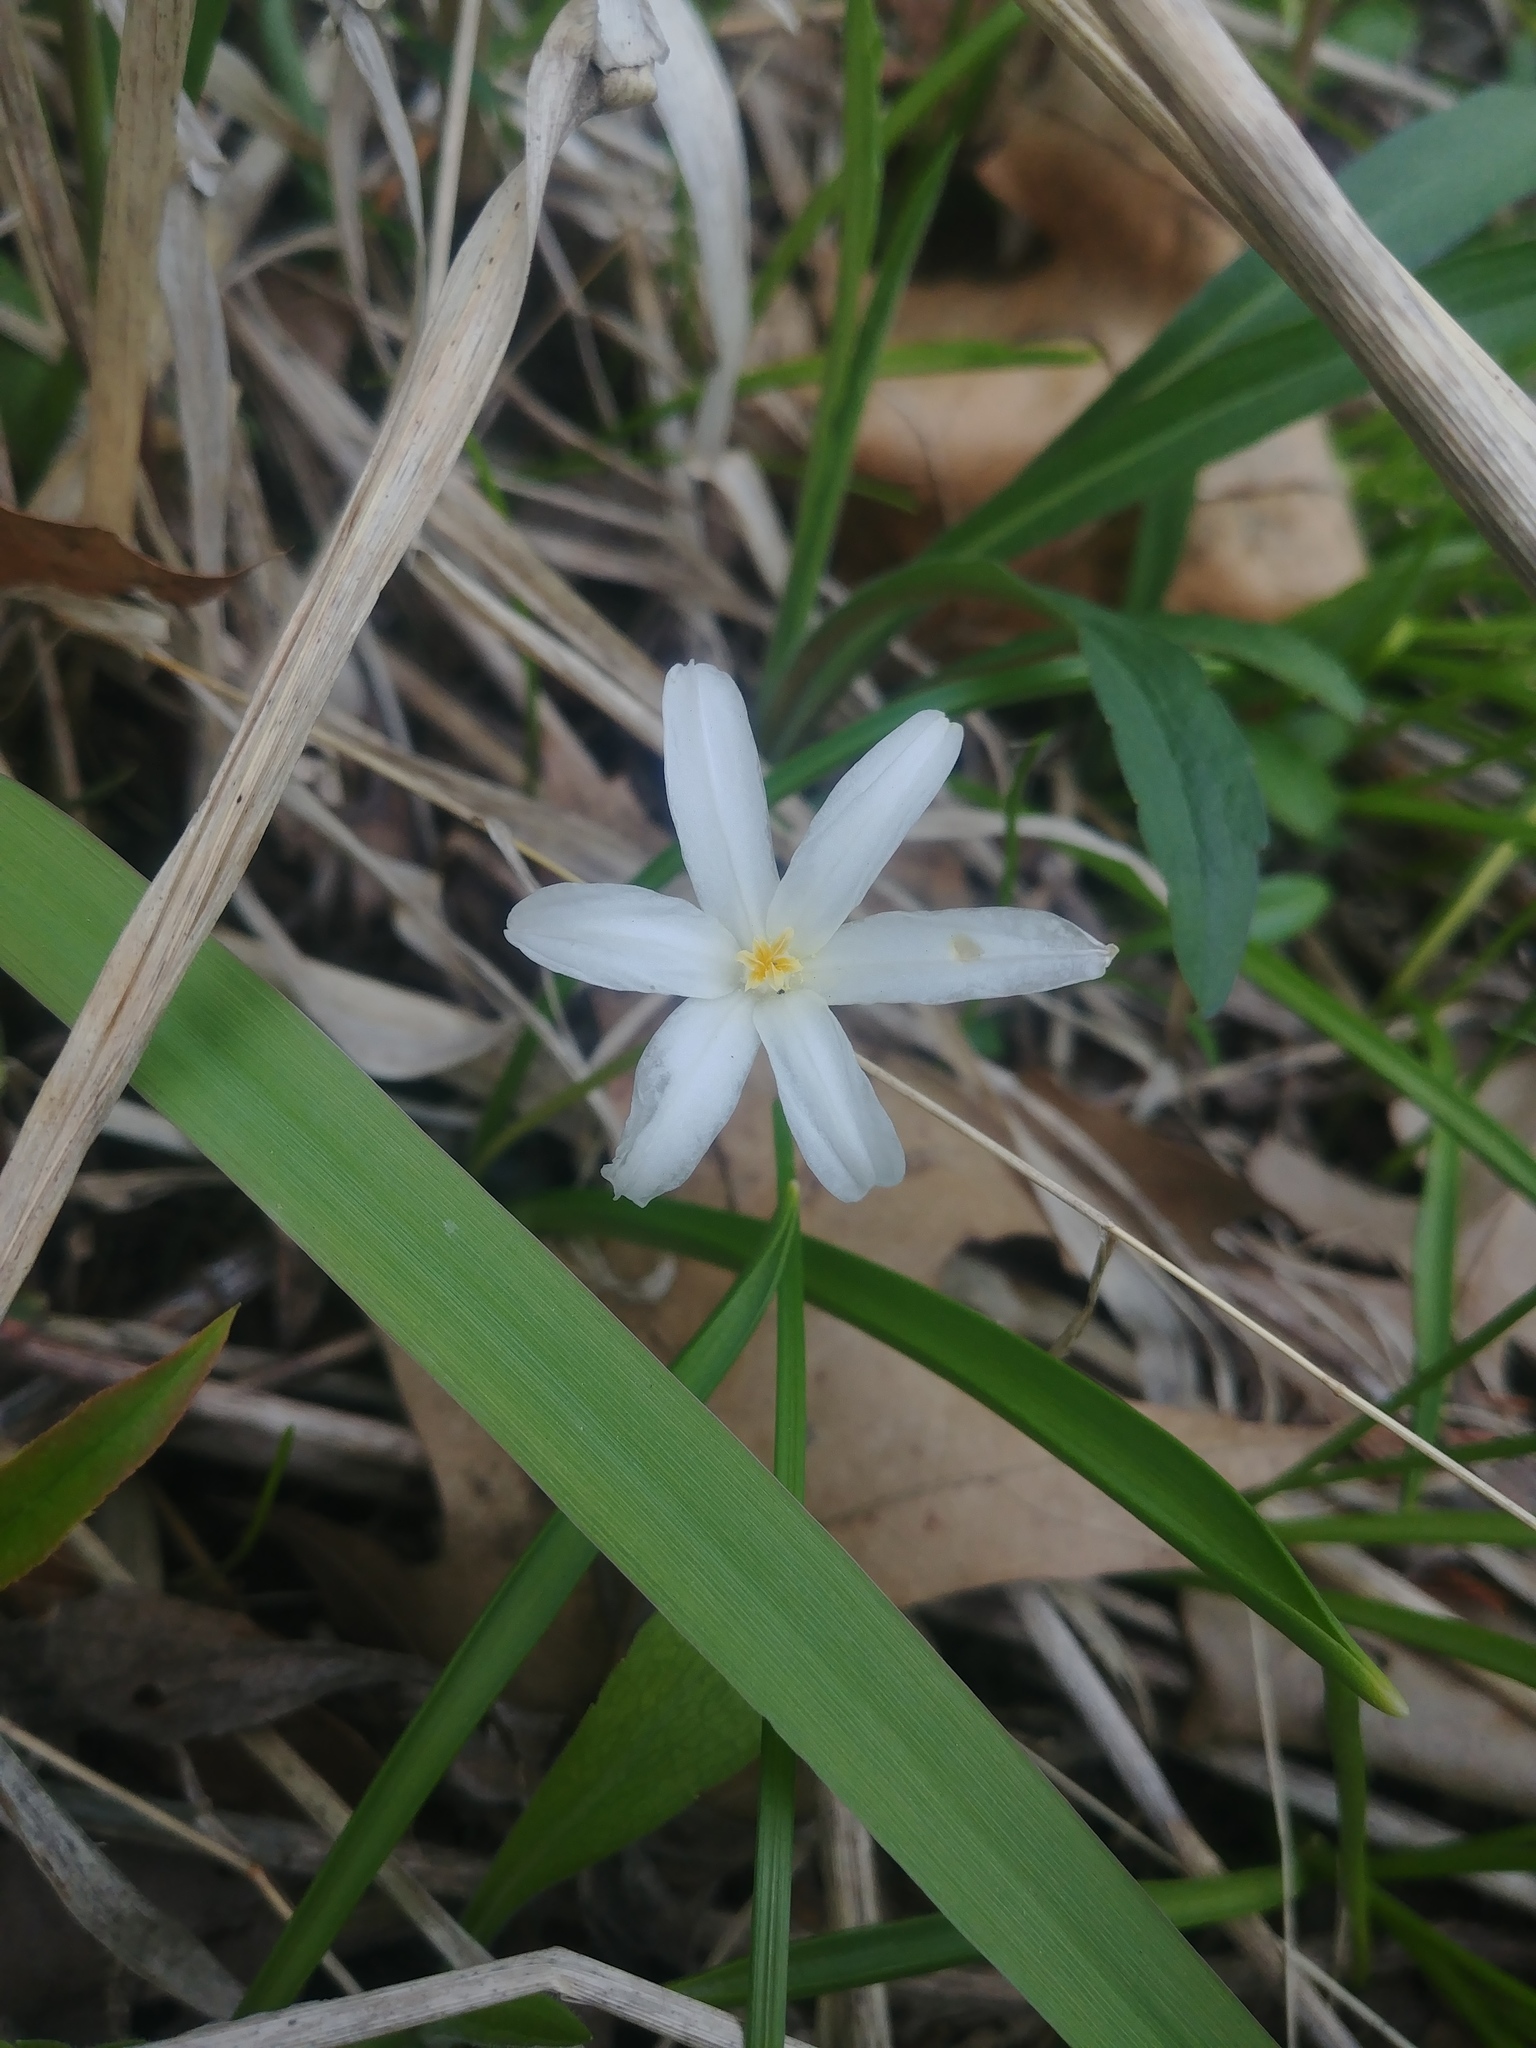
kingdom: Plantae
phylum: Tracheophyta
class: Liliopsida
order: Asparagales
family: Asparagaceae
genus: Ornithogalum
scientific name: Ornithogalum umbellatum
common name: Garden star-of-bethlehem
